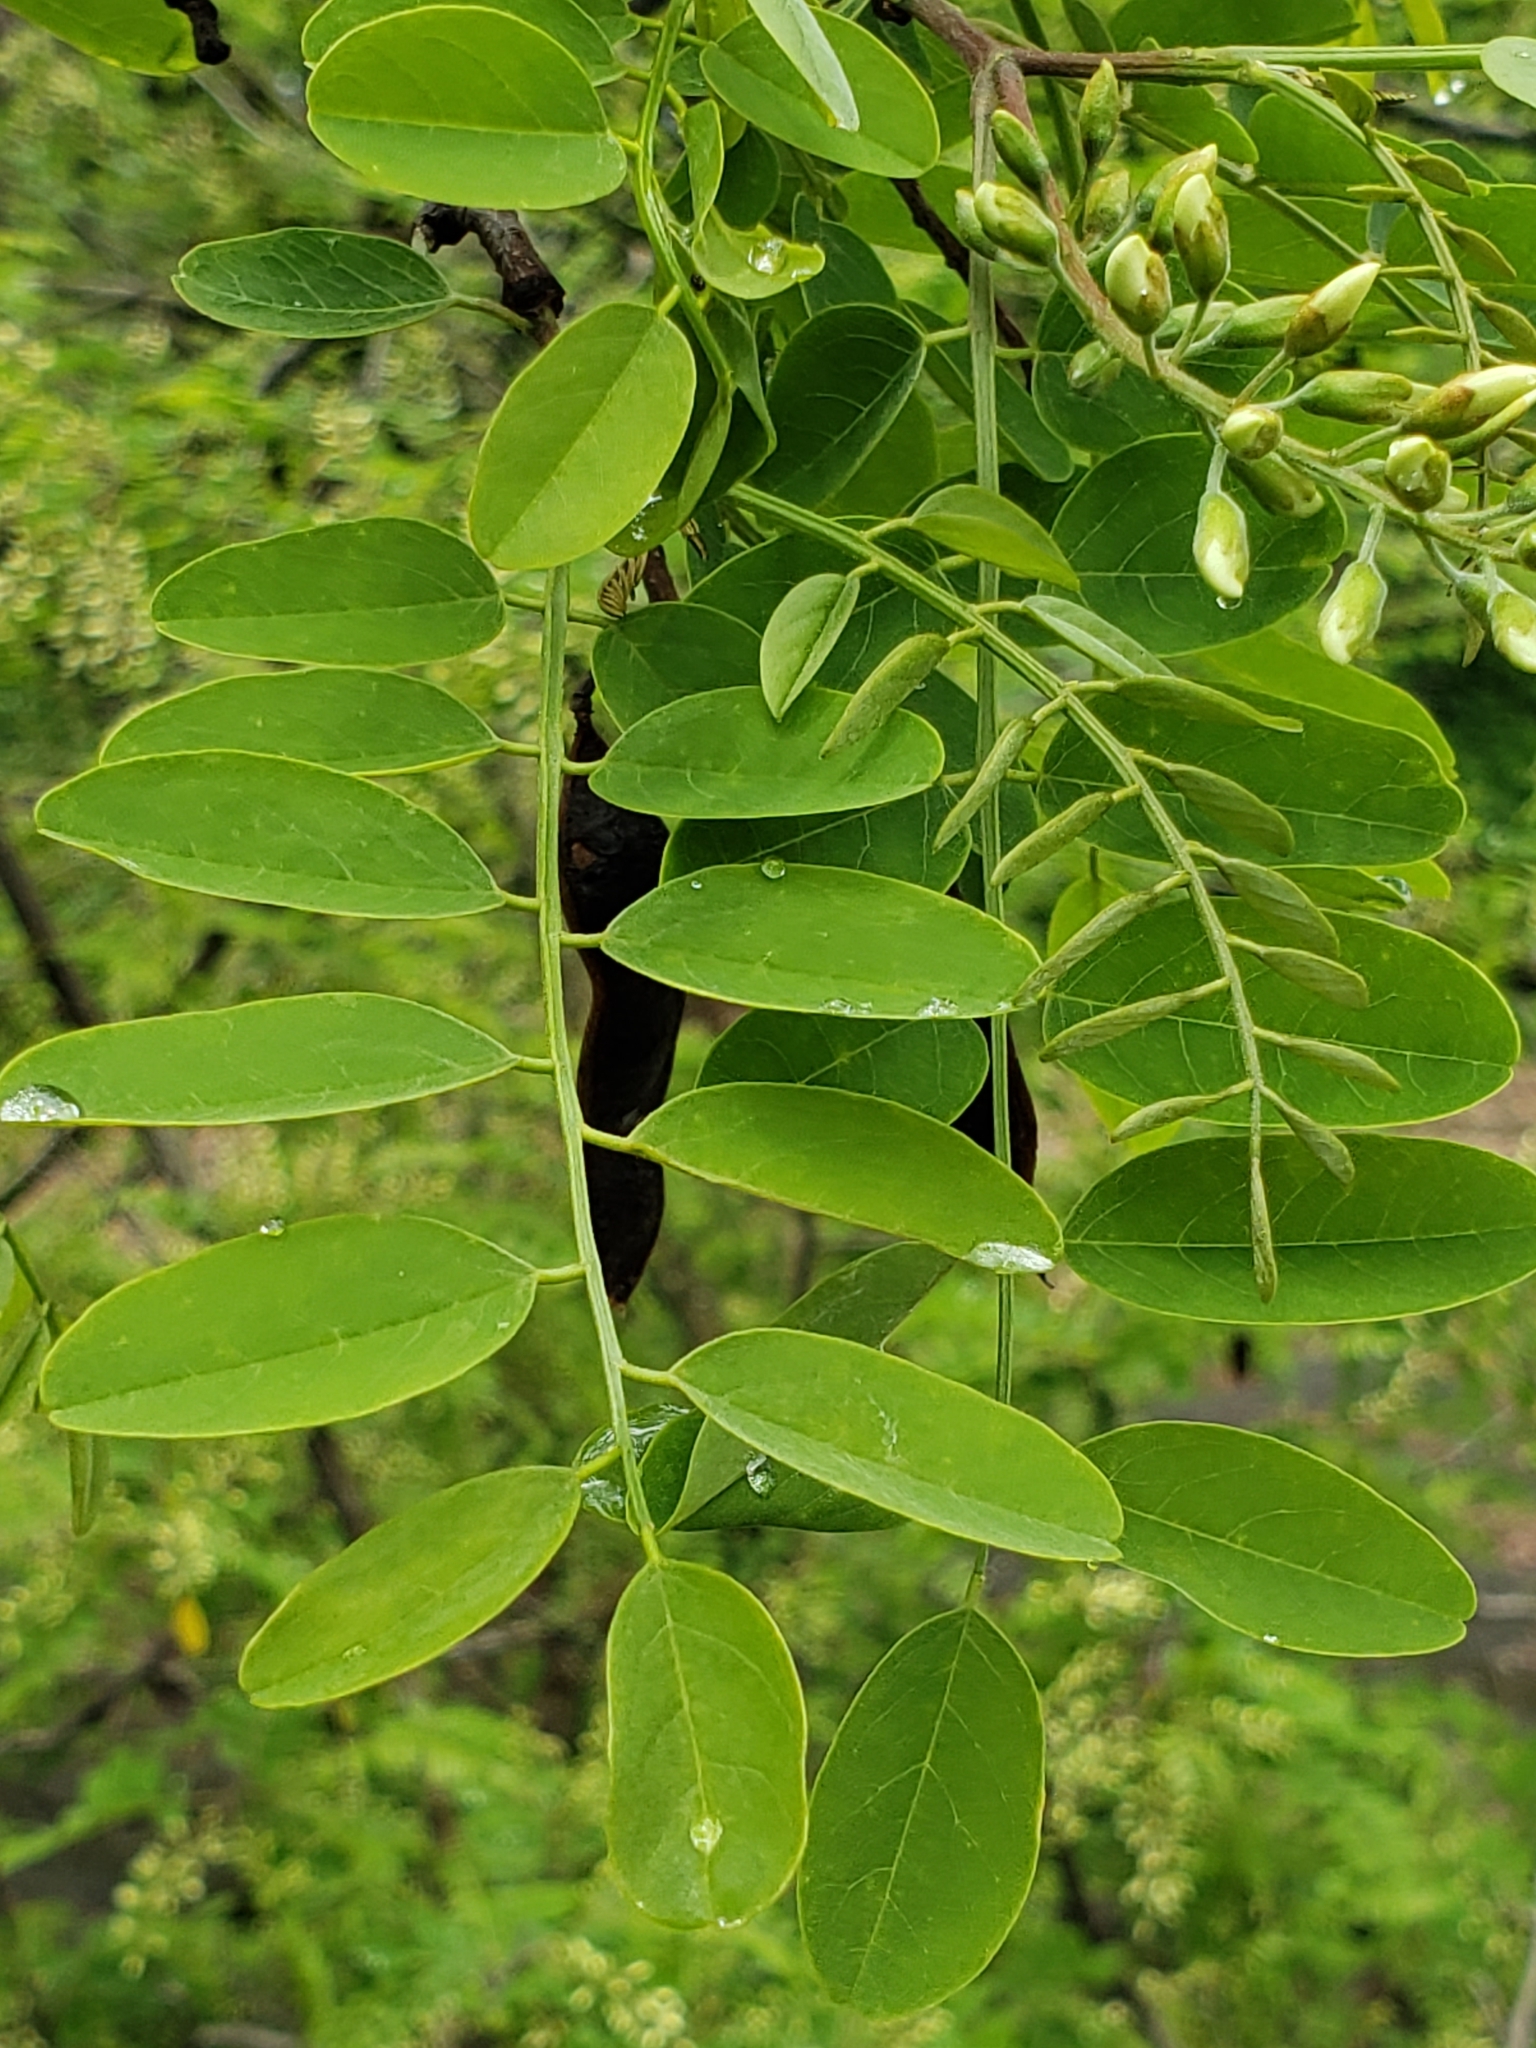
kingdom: Plantae
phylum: Tracheophyta
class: Magnoliopsida
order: Fabales
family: Fabaceae
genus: Robinia
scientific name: Robinia pseudoacacia
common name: Black locust
